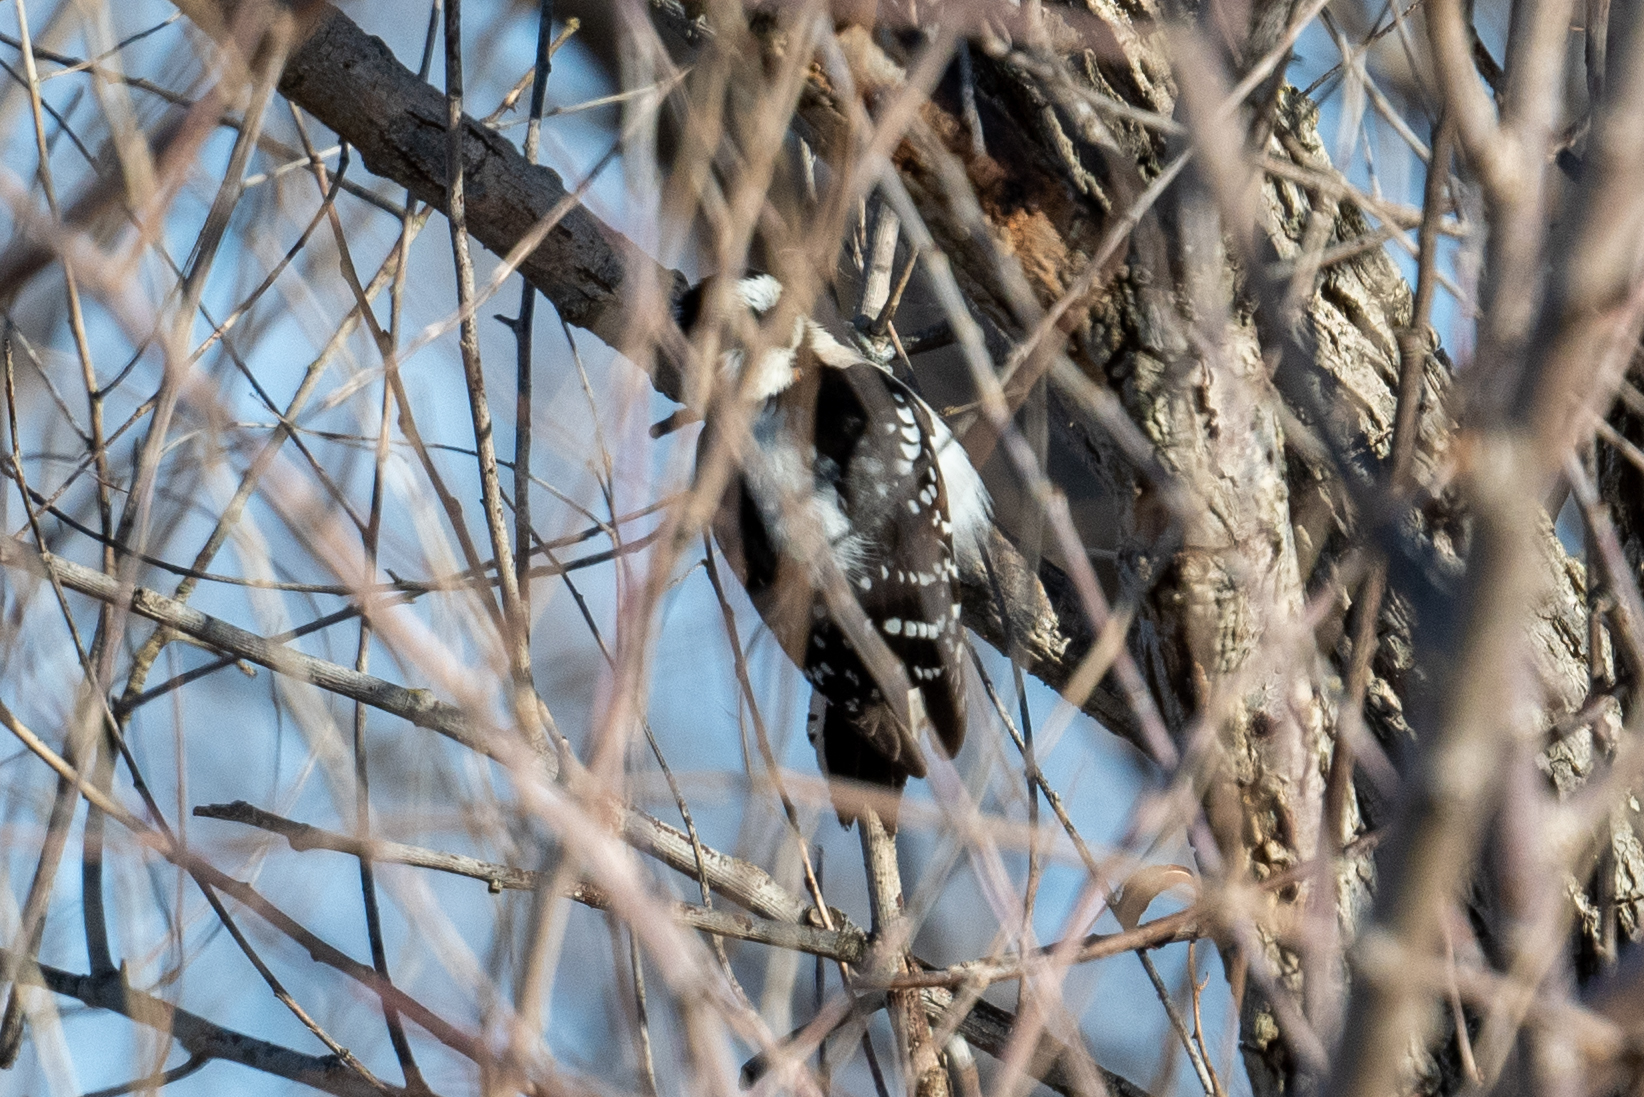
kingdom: Animalia
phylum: Chordata
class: Aves
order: Piciformes
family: Picidae
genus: Dryobates
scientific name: Dryobates pubescens
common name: Downy woodpecker
